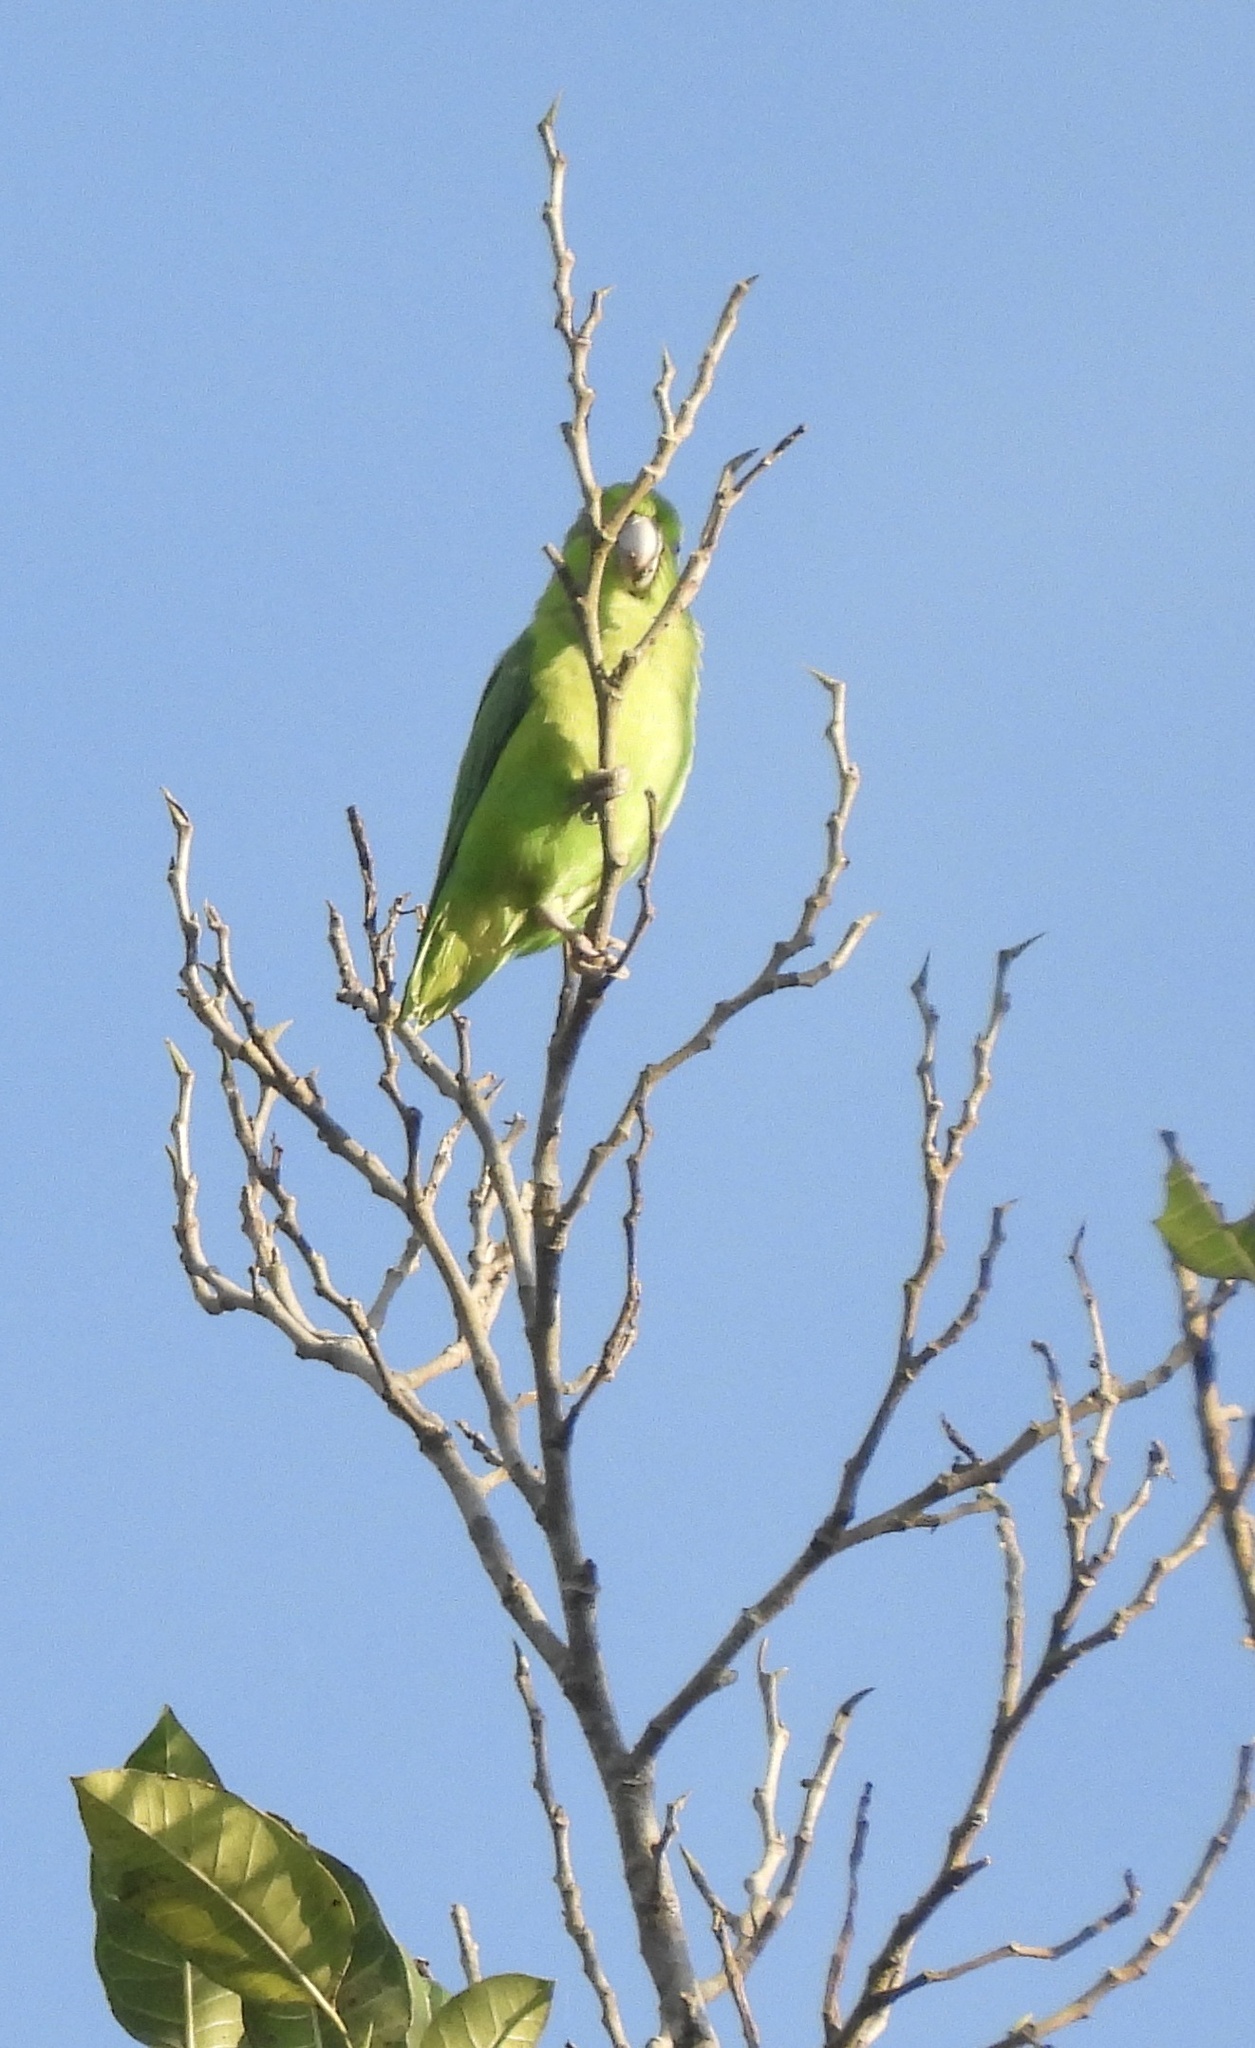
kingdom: Animalia
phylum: Chordata
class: Aves
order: Psittaciformes
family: Psittacidae
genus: Forpus
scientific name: Forpus cyanopygius
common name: Mexican parrotlet
